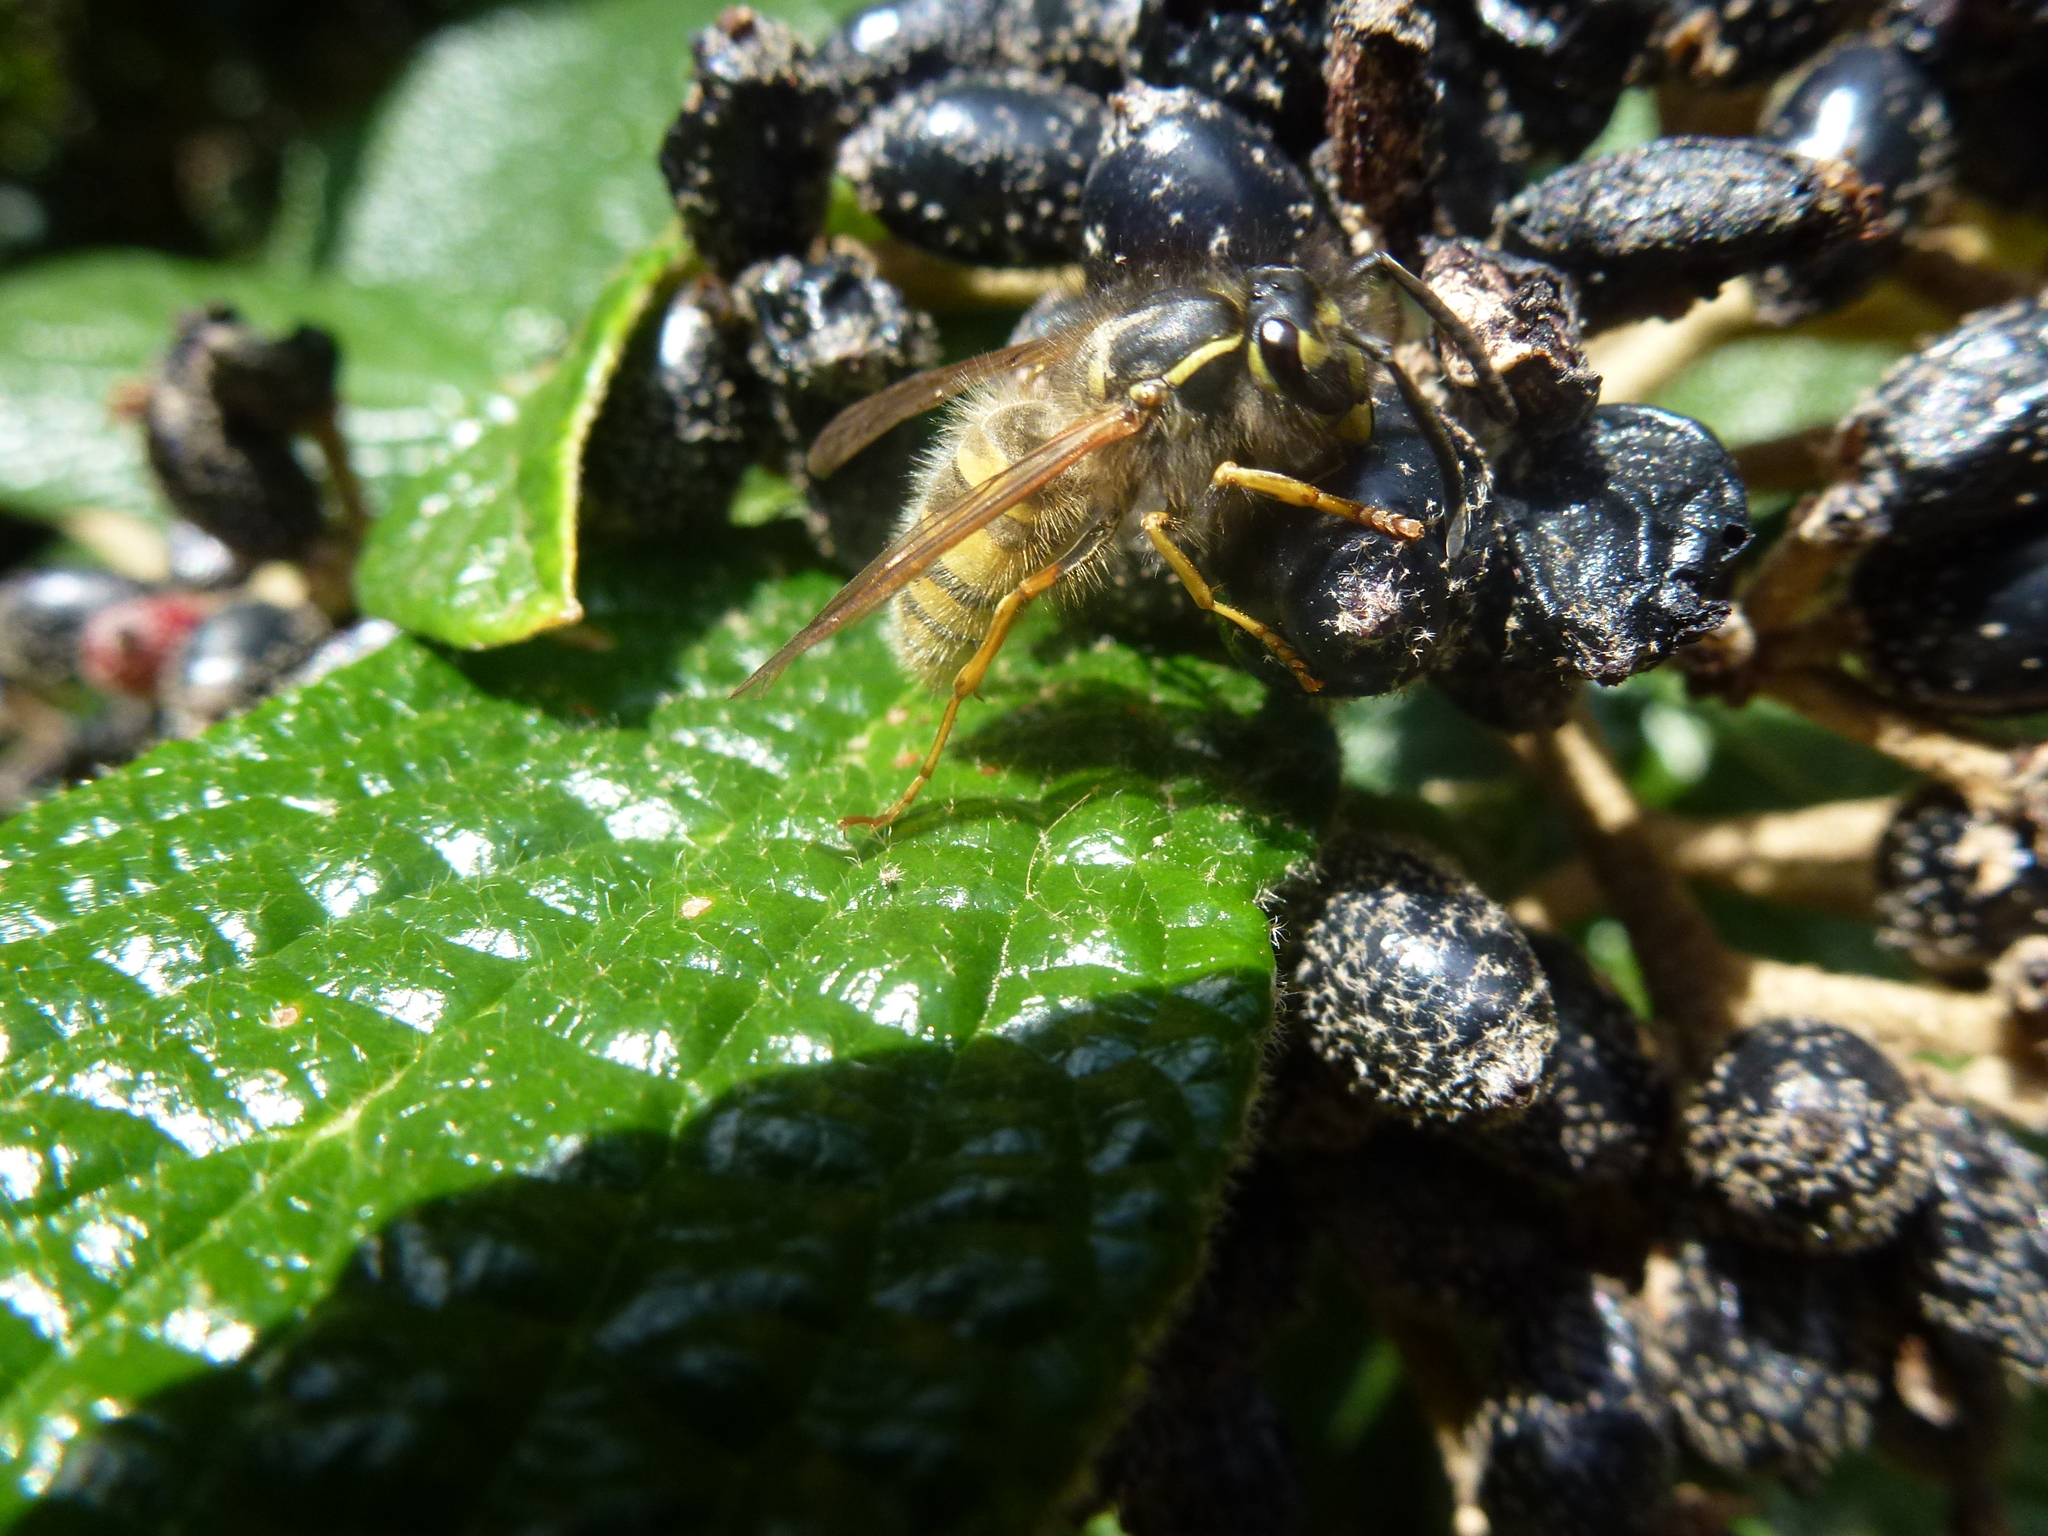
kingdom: Animalia
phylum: Arthropoda
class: Insecta
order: Hymenoptera
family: Vespidae
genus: Vespula
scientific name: Vespula vulgaris
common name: Common wasp
